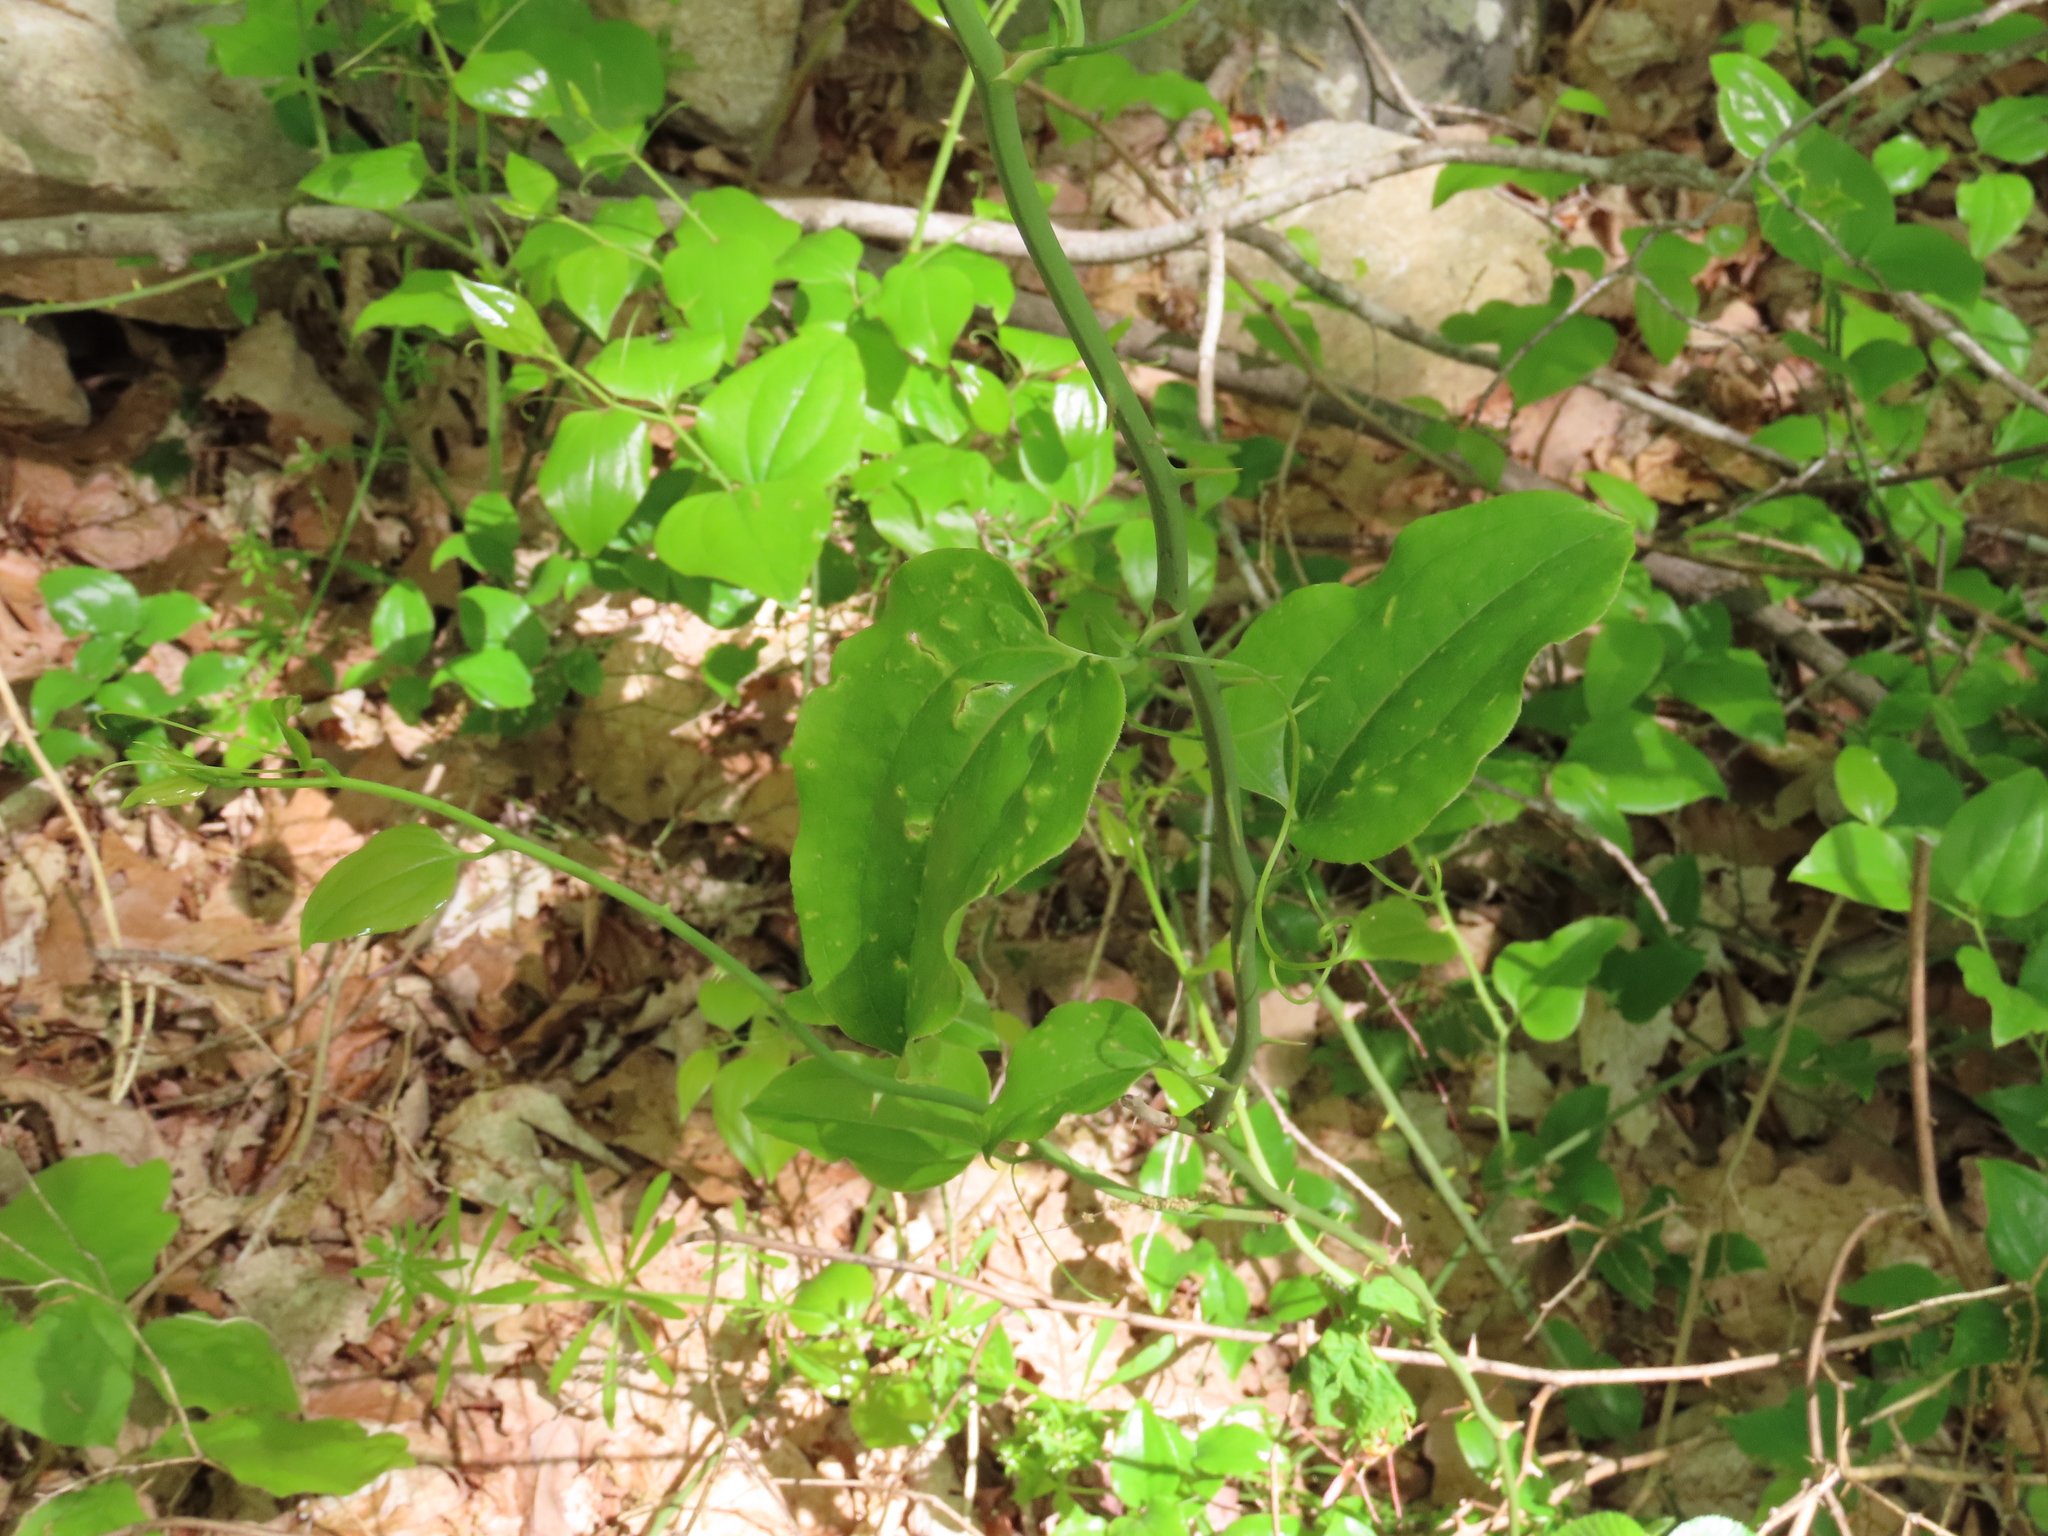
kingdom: Plantae
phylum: Tracheophyta
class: Liliopsida
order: Liliales
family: Smilacaceae
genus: Smilax
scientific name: Smilax rotundifolia
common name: Bullbriar
